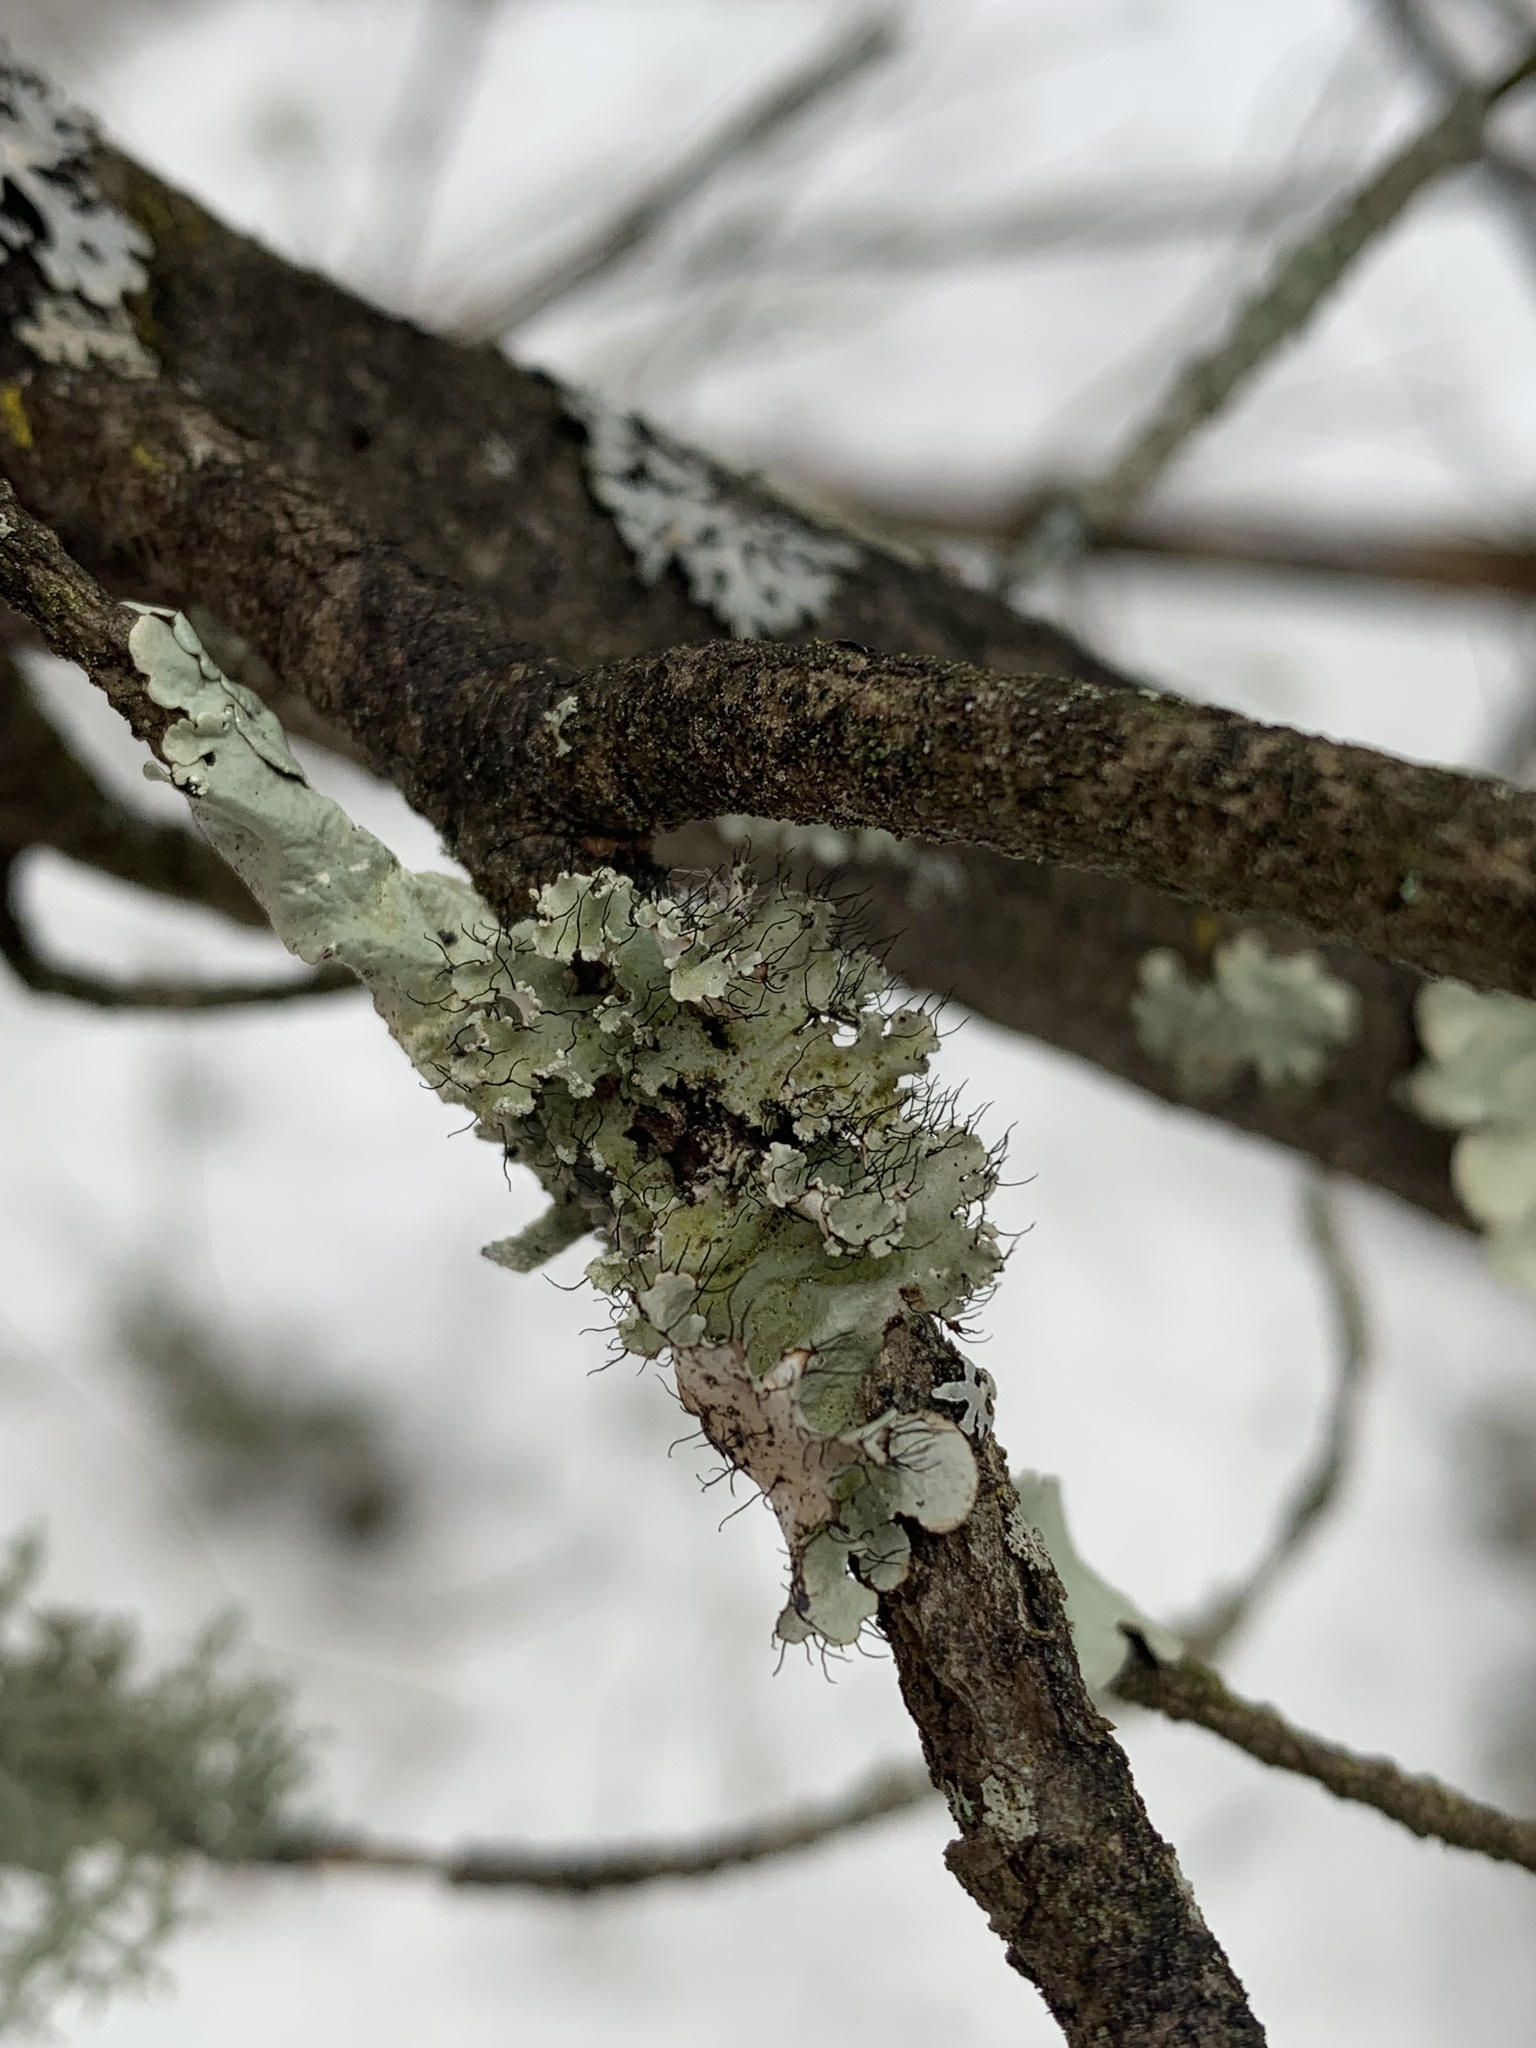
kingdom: Fungi
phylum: Ascomycota
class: Lecanoromycetes
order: Lecanorales
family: Parmeliaceae
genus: Parmotrema
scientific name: Parmotrema hypotropum
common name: Powdered ruffle lichen
